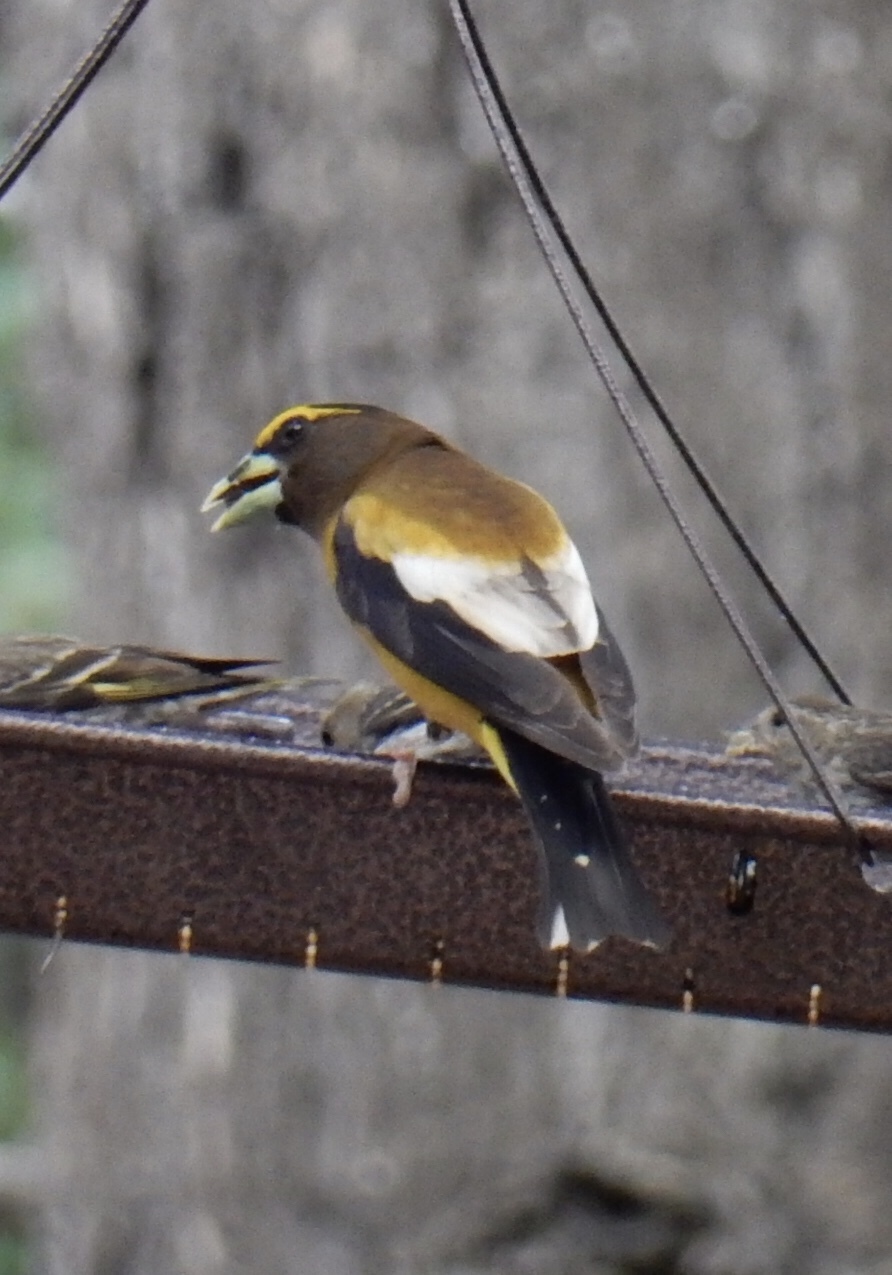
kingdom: Animalia
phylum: Chordata
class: Aves
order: Passeriformes
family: Fringillidae
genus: Hesperiphona
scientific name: Hesperiphona vespertina
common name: Evening grosbeak
